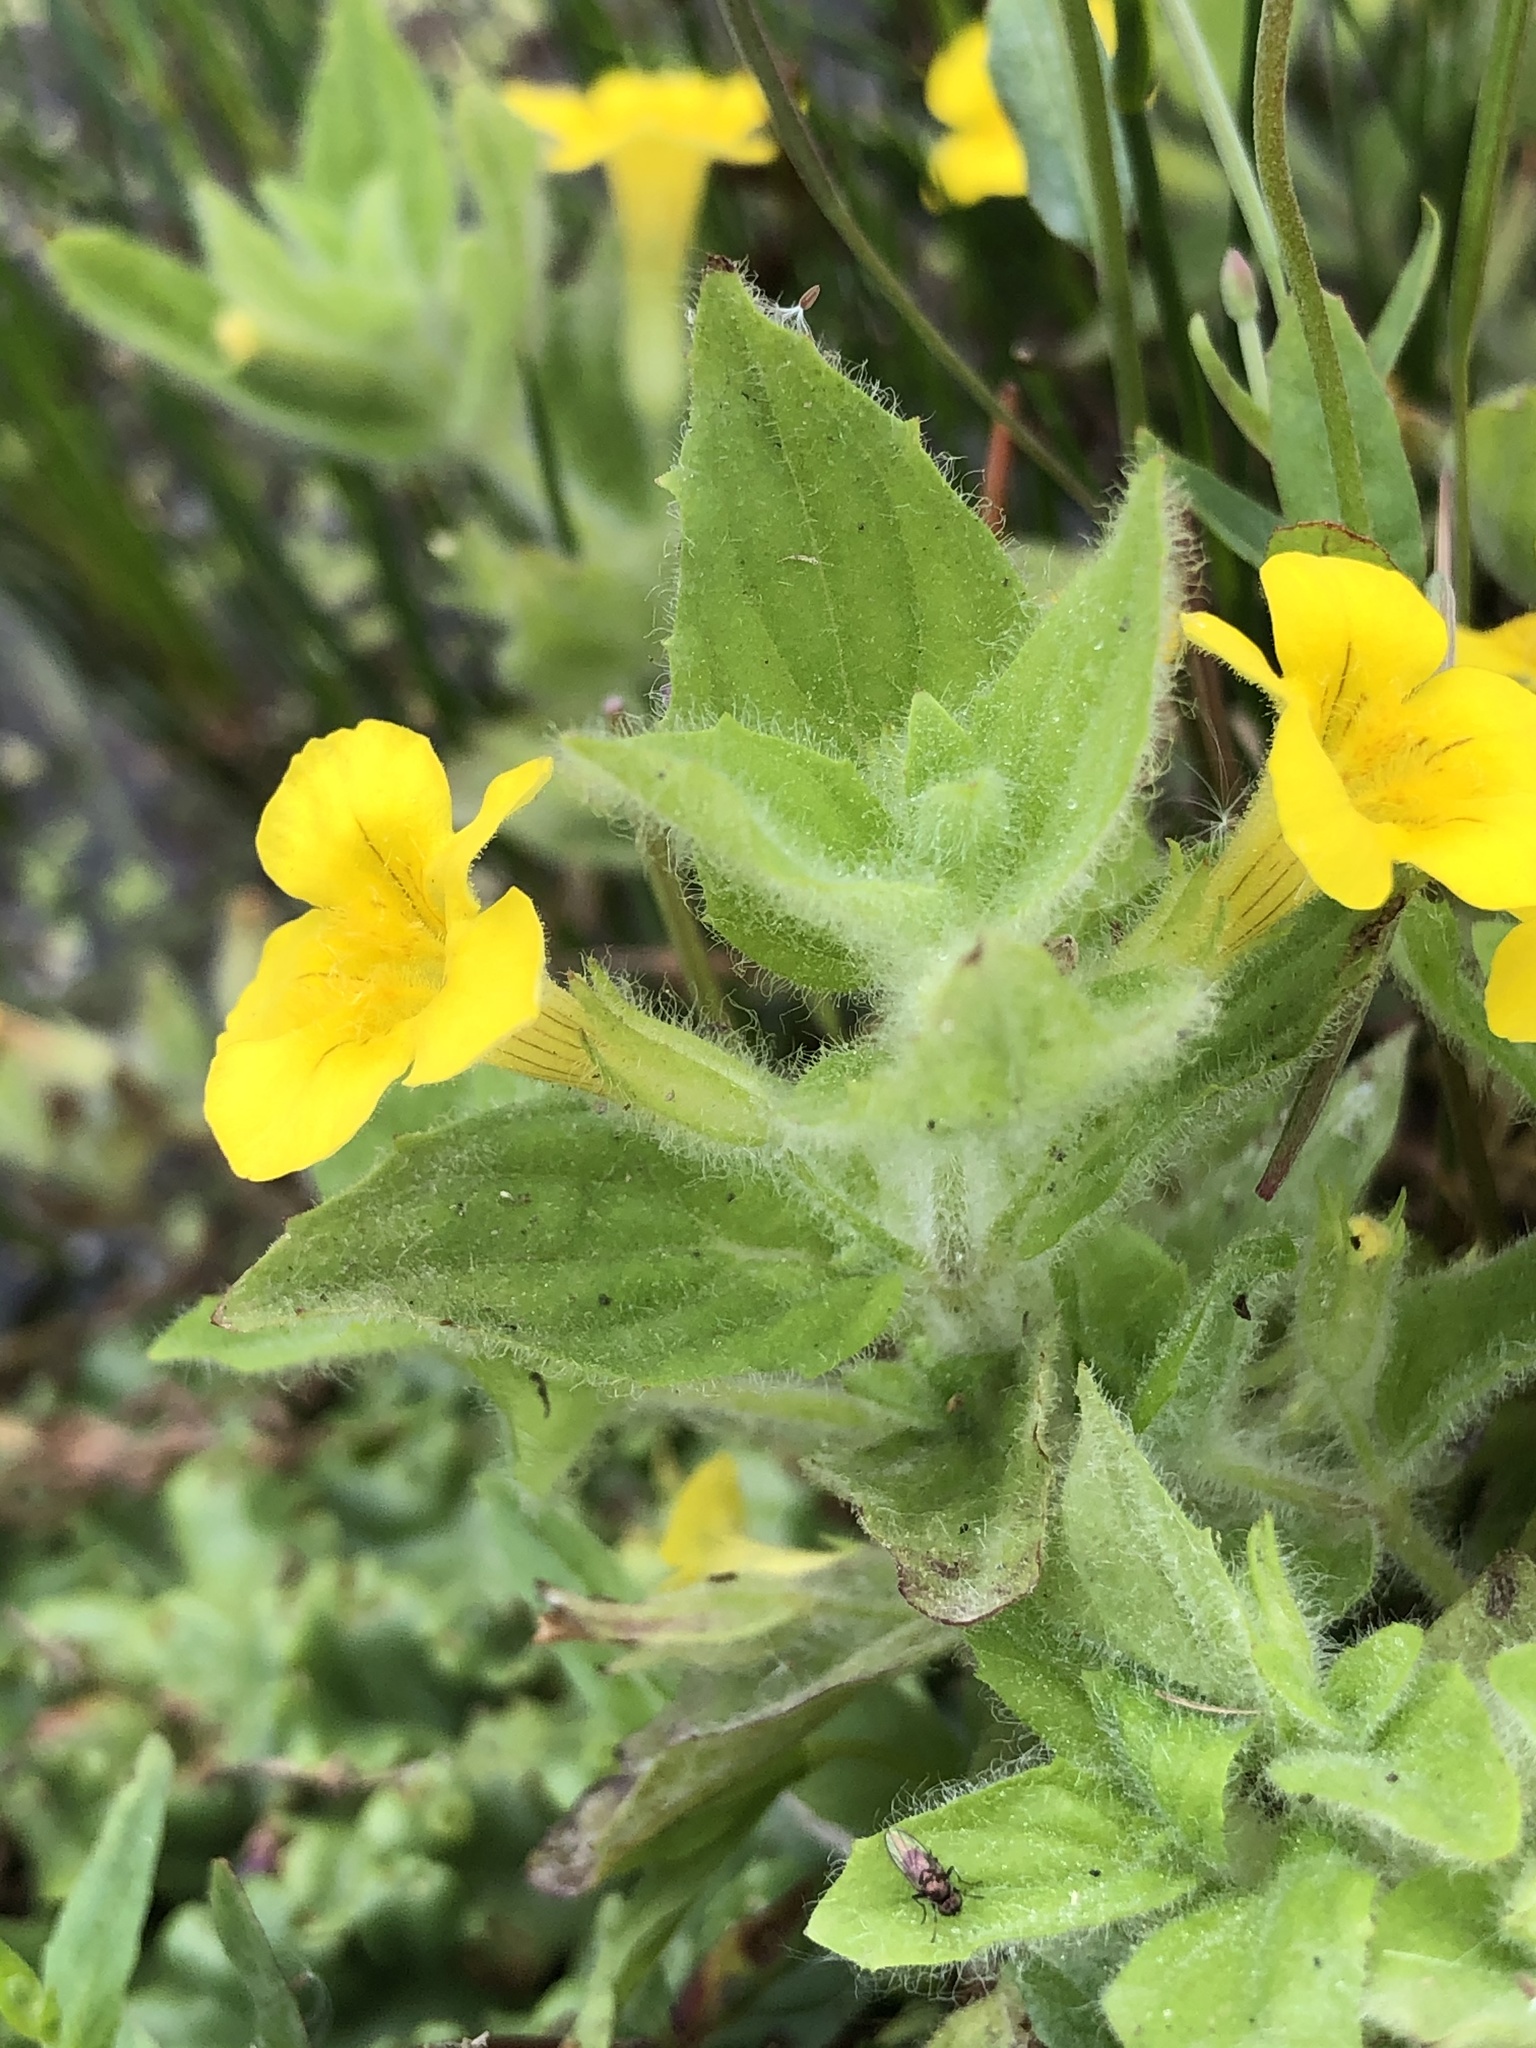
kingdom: Plantae
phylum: Tracheophyta
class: Magnoliopsida
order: Lamiales
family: Phrymaceae
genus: Erythranthe
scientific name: Erythranthe moschata
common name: Muskflower
